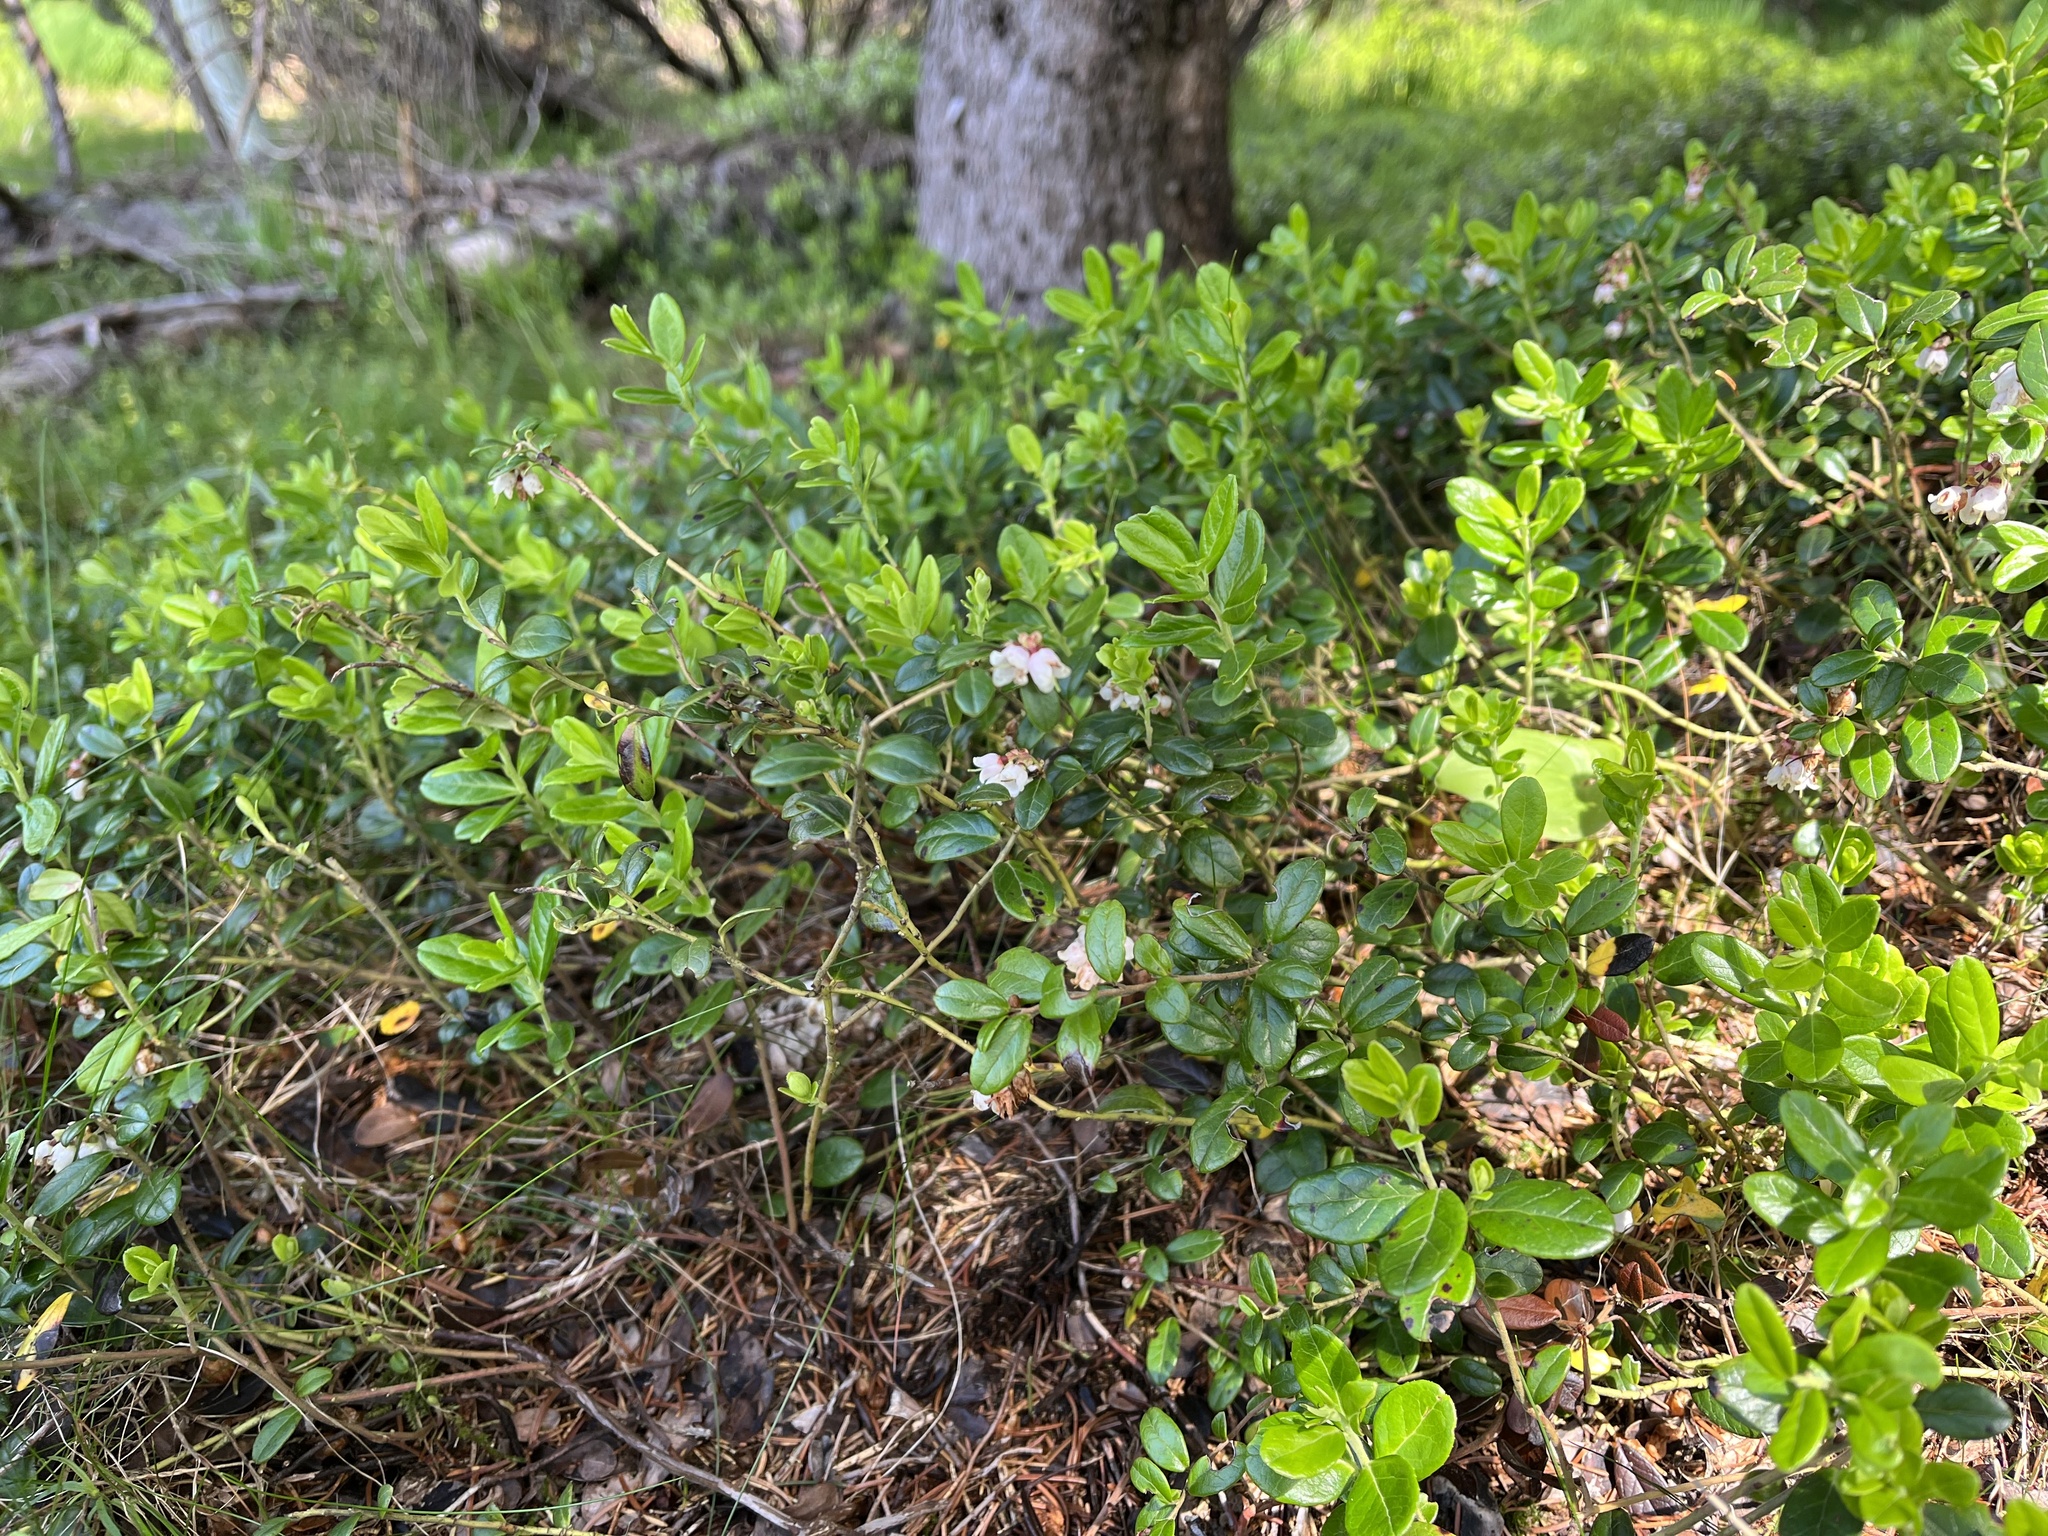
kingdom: Plantae
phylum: Tracheophyta
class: Magnoliopsida
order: Ericales
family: Ericaceae
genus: Vaccinium
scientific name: Vaccinium vitis-idaea
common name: Cowberry
